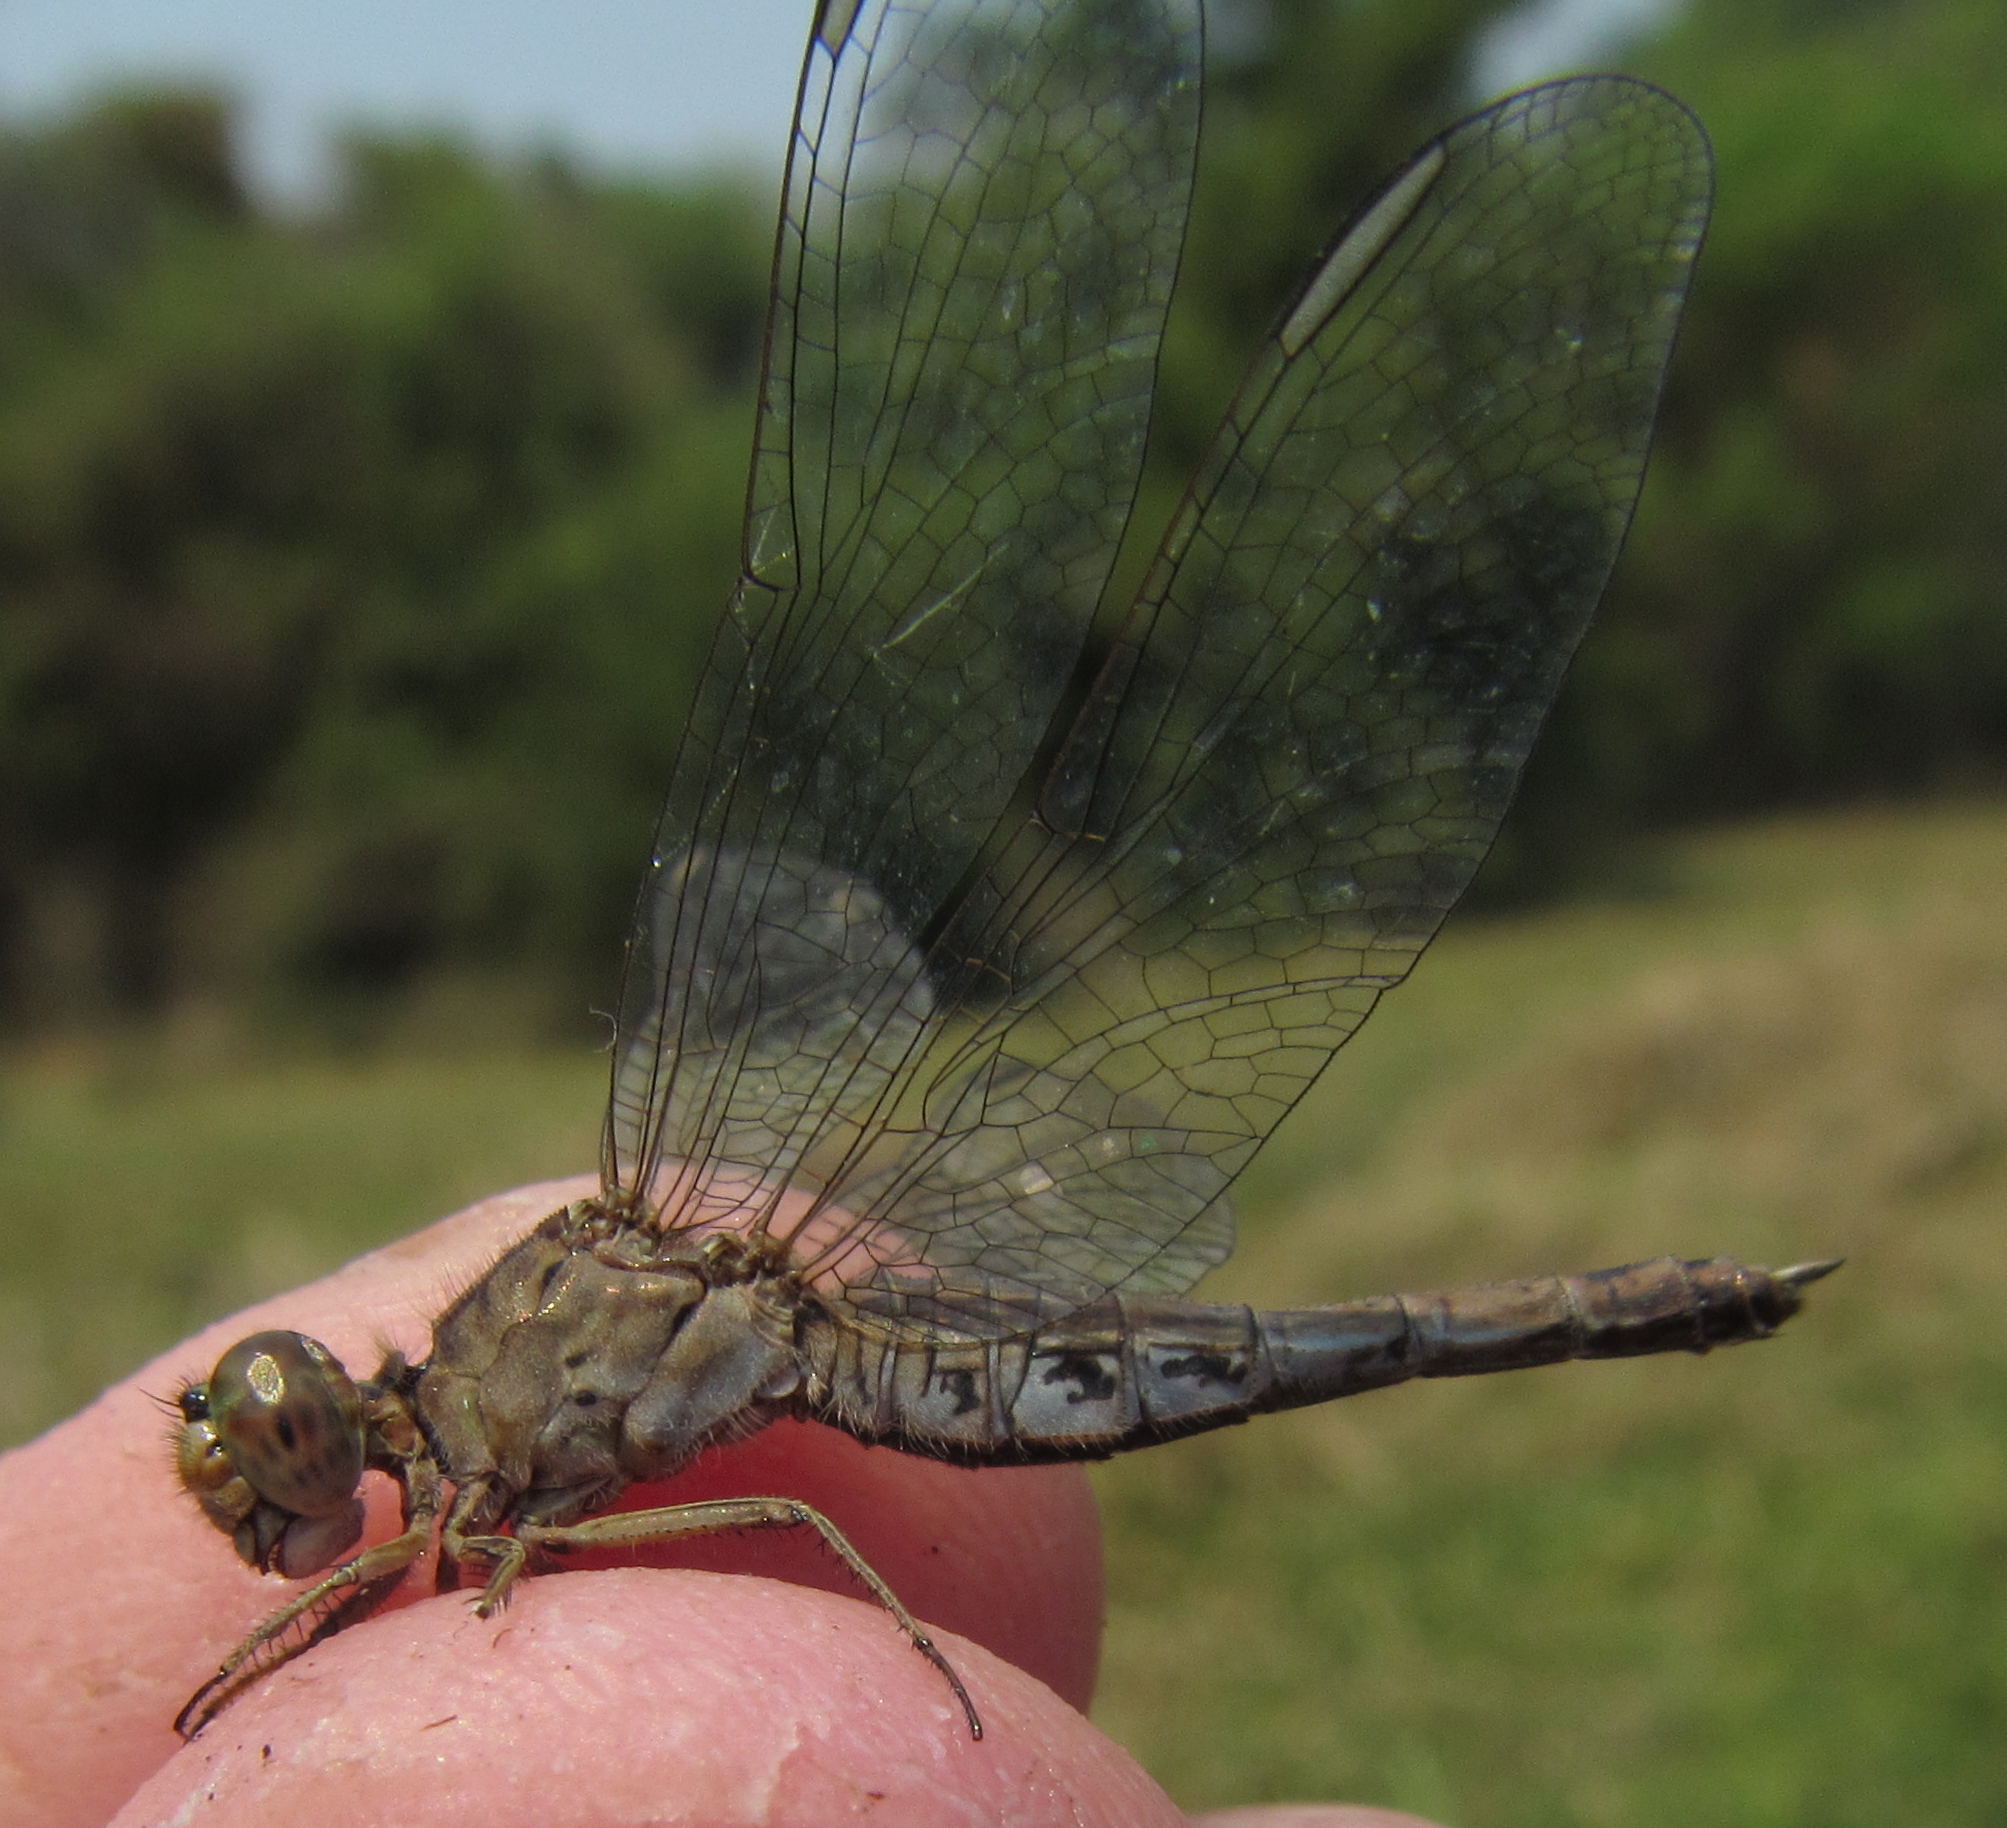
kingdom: Animalia
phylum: Arthropoda
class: Insecta
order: Odonata
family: Libellulidae
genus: Acisoma
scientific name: Acisoma inflatum
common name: Stout pintail
